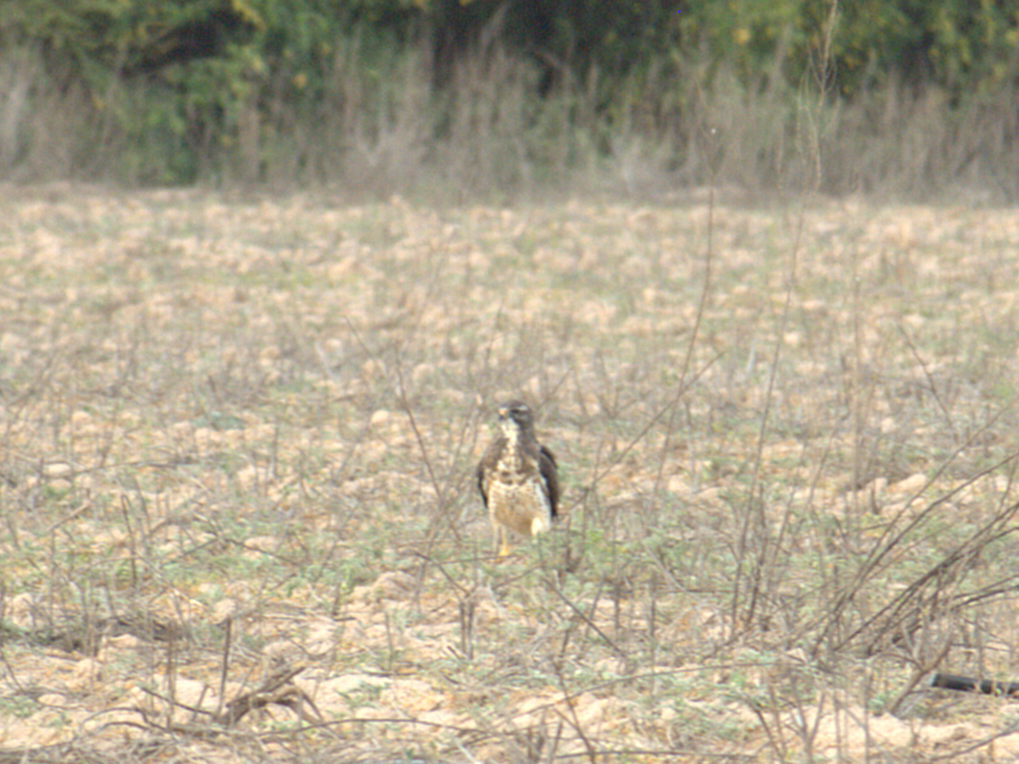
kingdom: Animalia
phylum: Chordata
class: Aves
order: Accipitriformes
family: Accipitridae
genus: Buteo
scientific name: Buteo swainsoni
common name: Swainson's hawk
